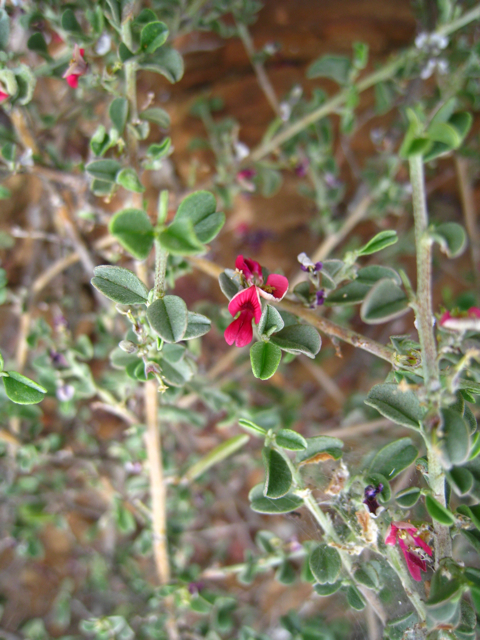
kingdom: Plantae
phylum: Tracheophyta
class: Magnoliopsida
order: Fabales
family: Fabaceae
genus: Indigofera
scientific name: Indigofera obcordata
